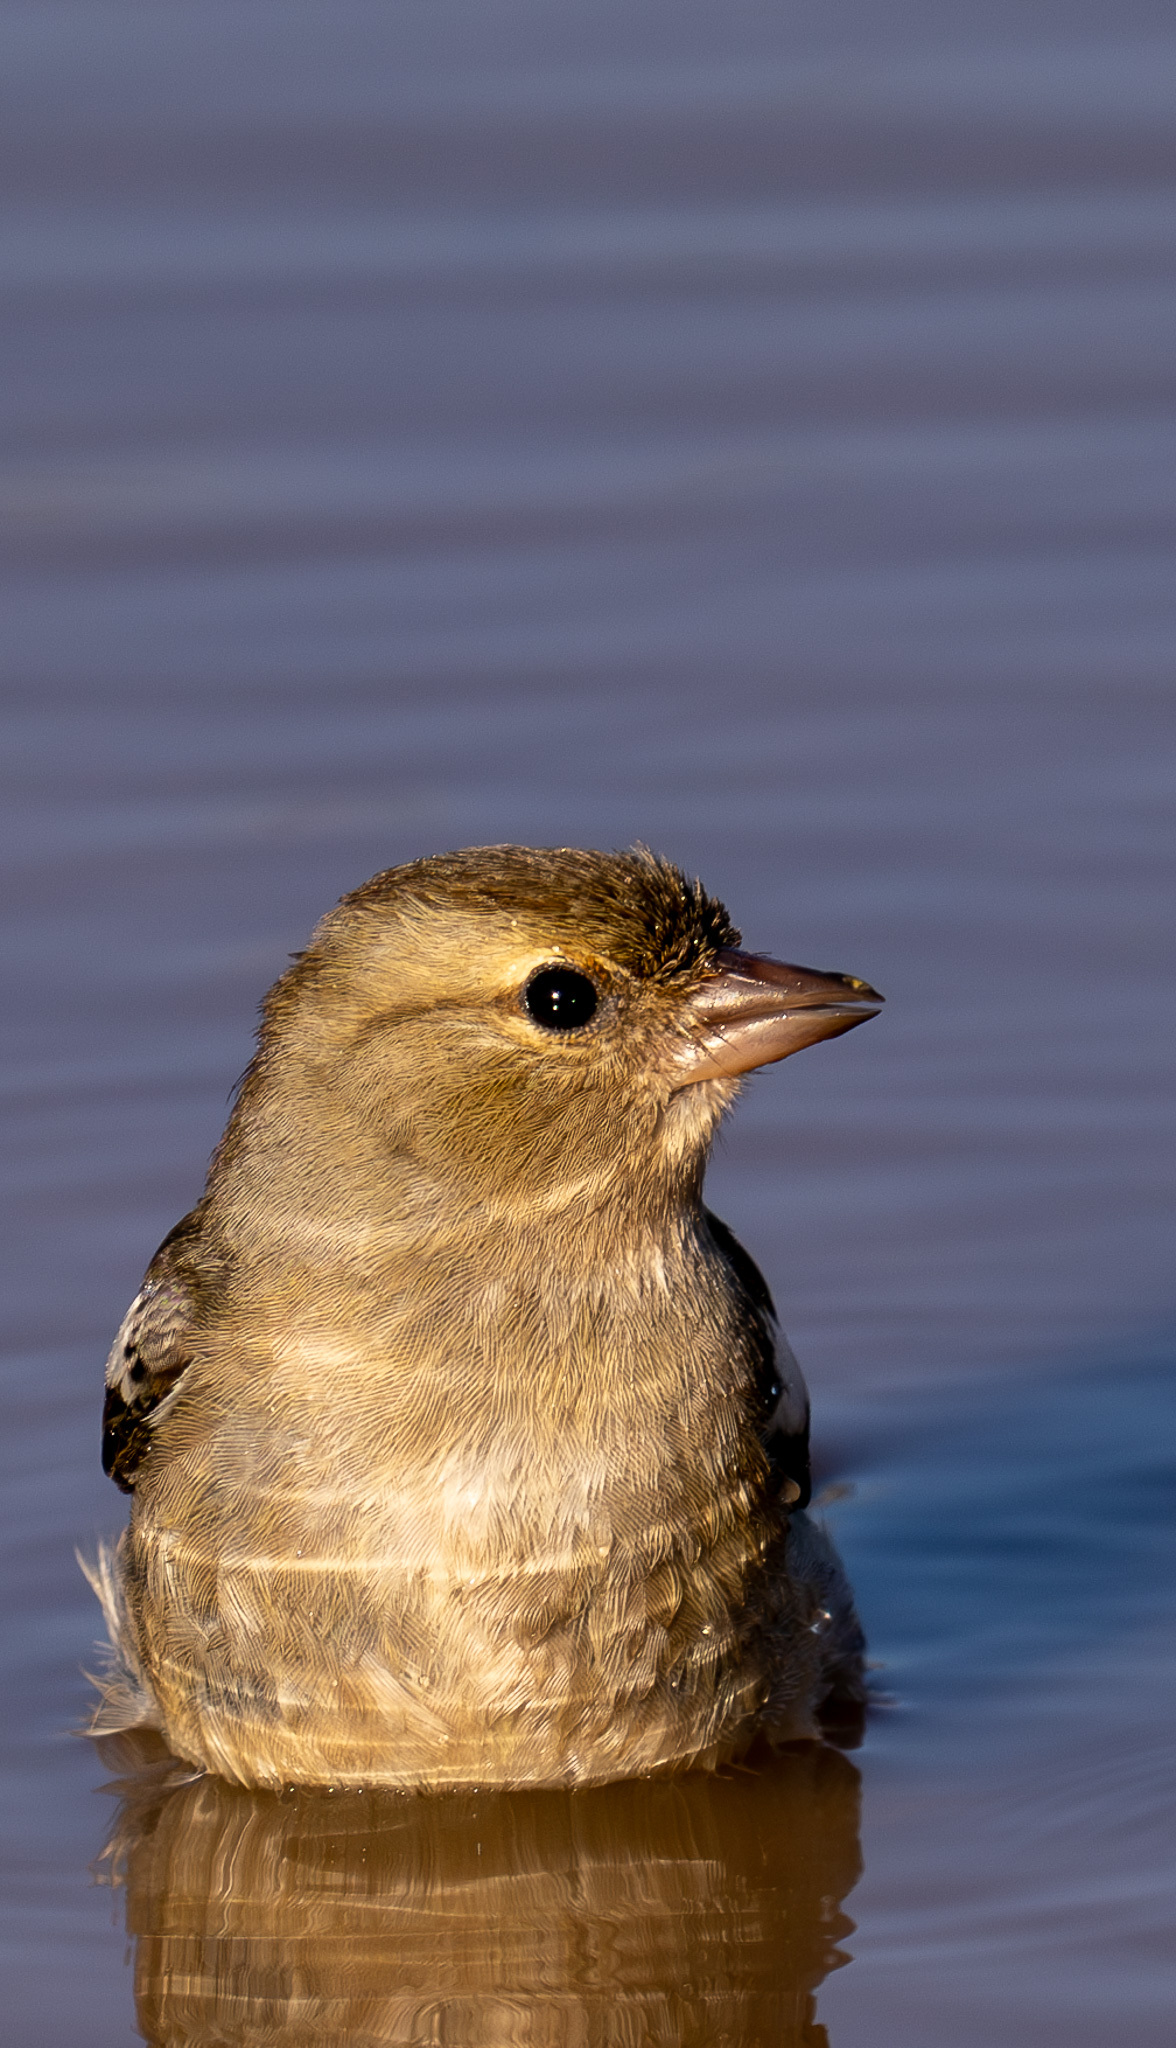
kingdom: Animalia
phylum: Chordata
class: Aves
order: Passeriformes
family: Fringillidae
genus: Fringilla
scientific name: Fringilla coelebs
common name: Common chaffinch
